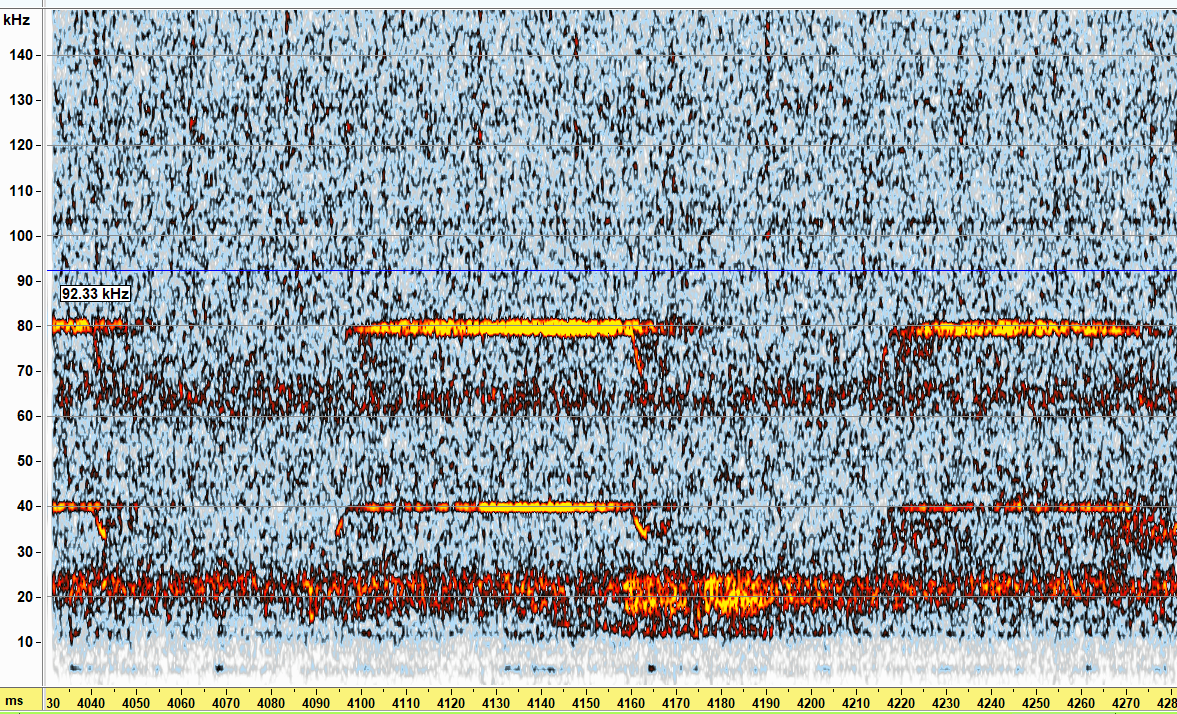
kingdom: Animalia
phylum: Chordata
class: Mammalia
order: Chiroptera
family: Rhinolophidae
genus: Rhinolophus
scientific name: Rhinolophus ferrumequinum
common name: Greater horseshoe bat
